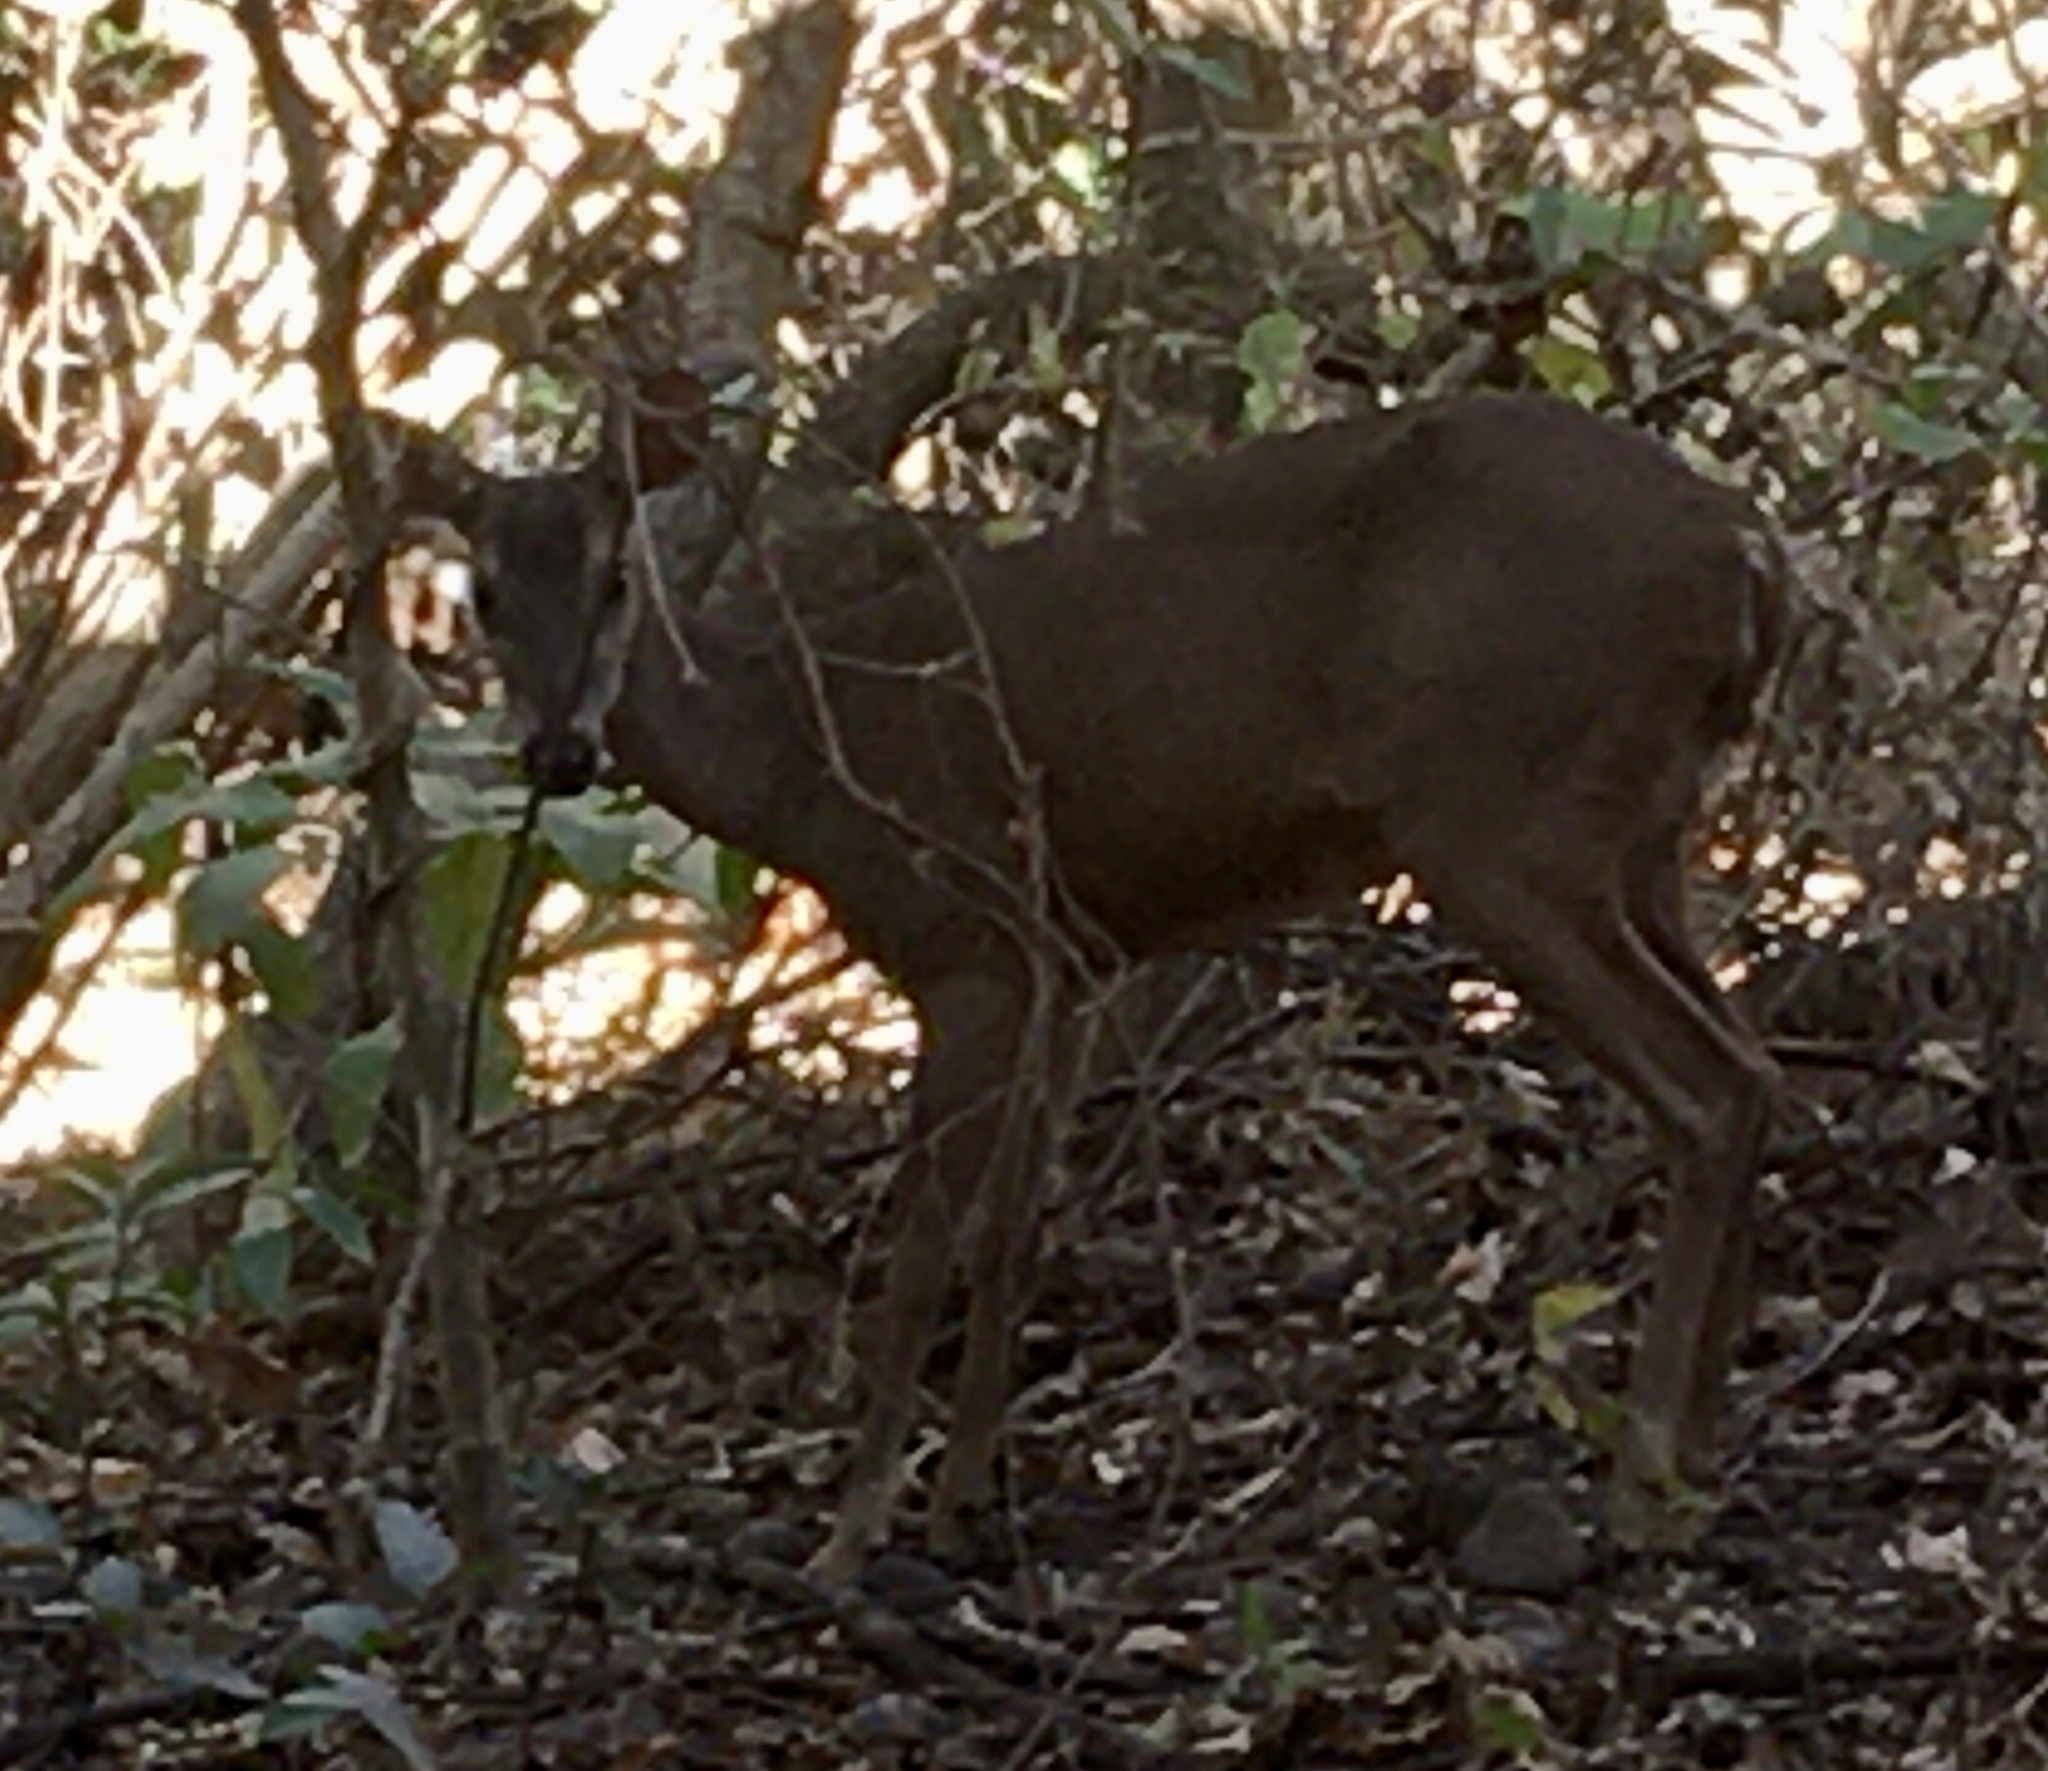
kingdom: Animalia
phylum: Chordata
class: Mammalia
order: Artiodactyla
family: Cervidae
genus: Odocoileus
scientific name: Odocoileus virginianus
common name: White-tailed deer
